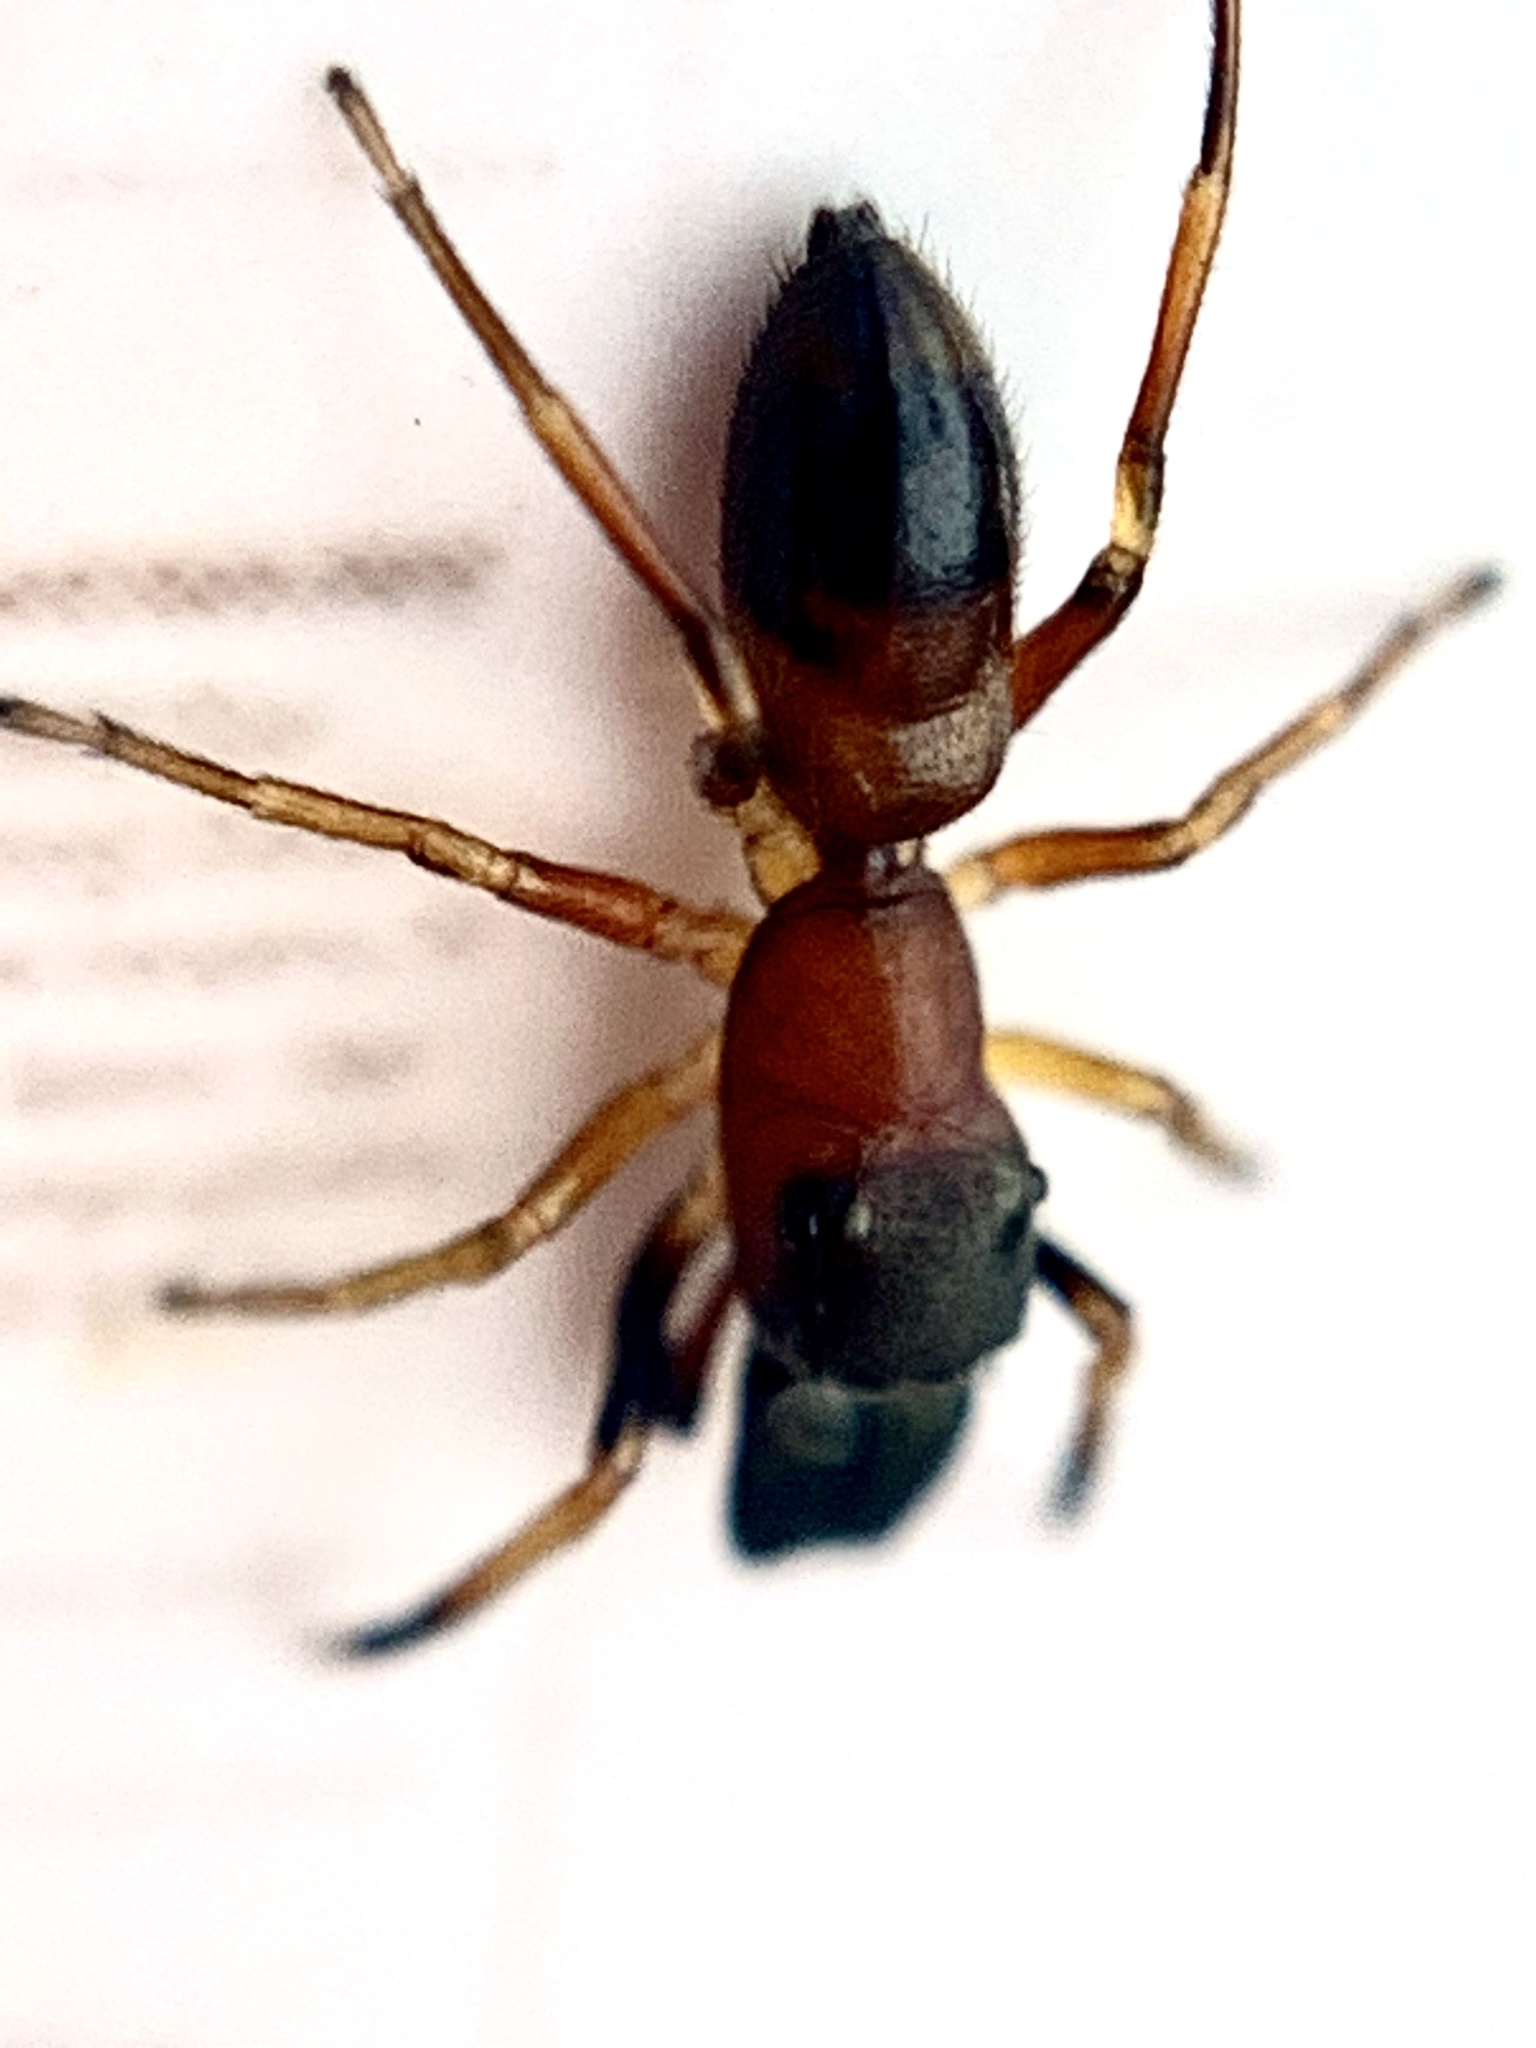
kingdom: Animalia
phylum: Arthropoda
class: Arachnida
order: Araneae
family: Salticidae
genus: Myrmarachne
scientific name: Myrmarachne formicaria
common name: Ant mimic jumping spider
